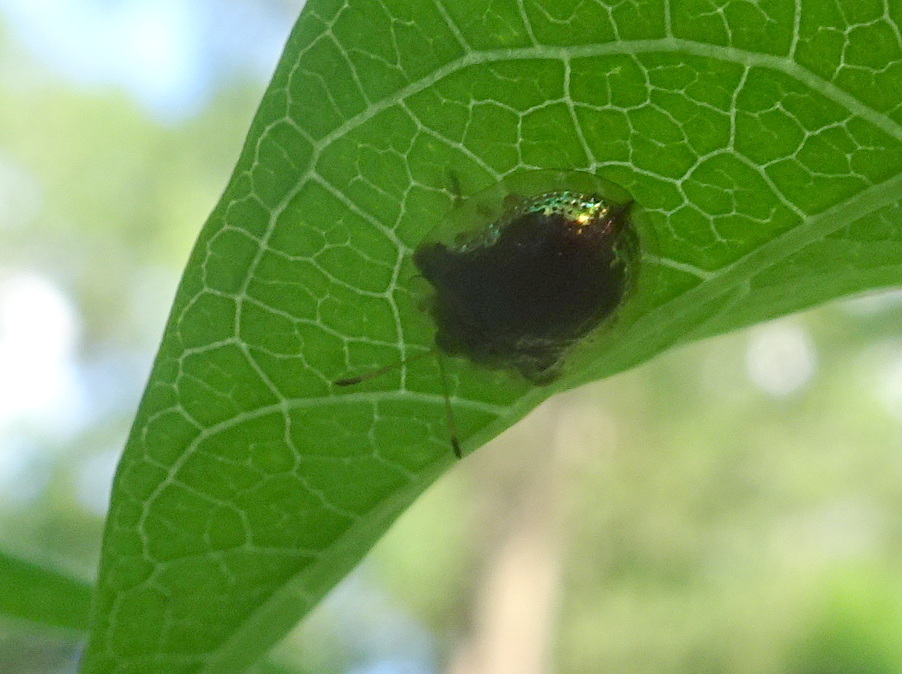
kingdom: Animalia
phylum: Arthropoda
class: Insecta
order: Coleoptera
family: Chrysomelidae
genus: Deloyala
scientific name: Deloyala guttata
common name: Mottled tortoise beetle
